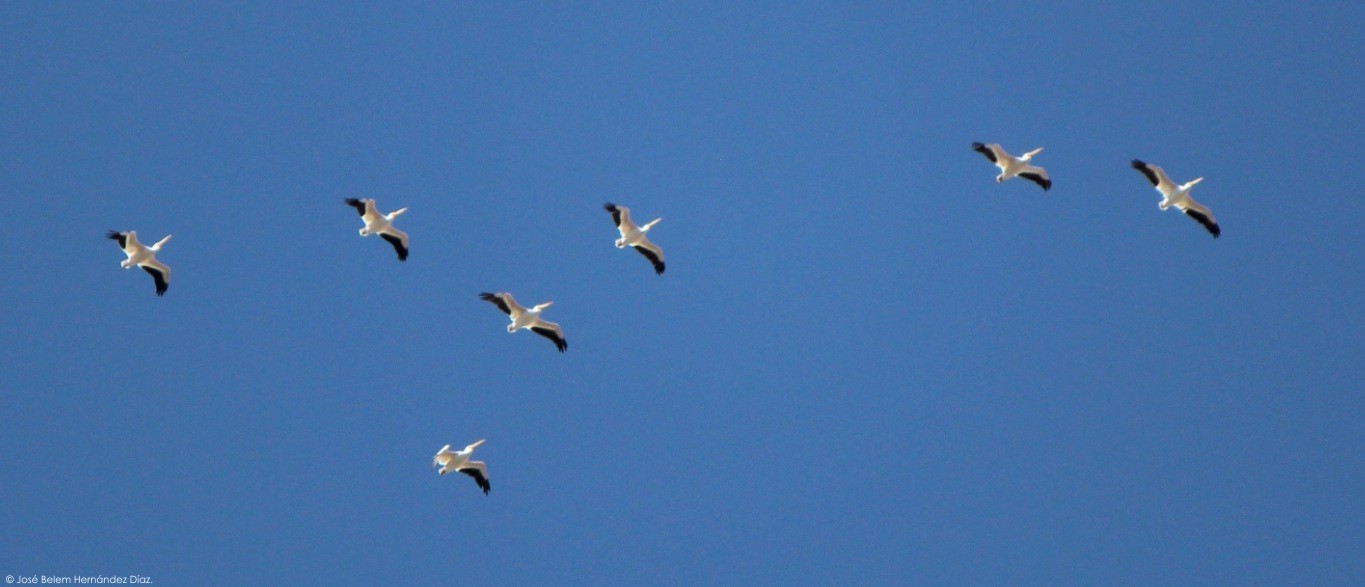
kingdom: Animalia
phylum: Chordata
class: Aves
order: Pelecaniformes
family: Pelecanidae
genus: Pelecanus
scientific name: Pelecanus erythrorhynchos
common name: American white pelican
